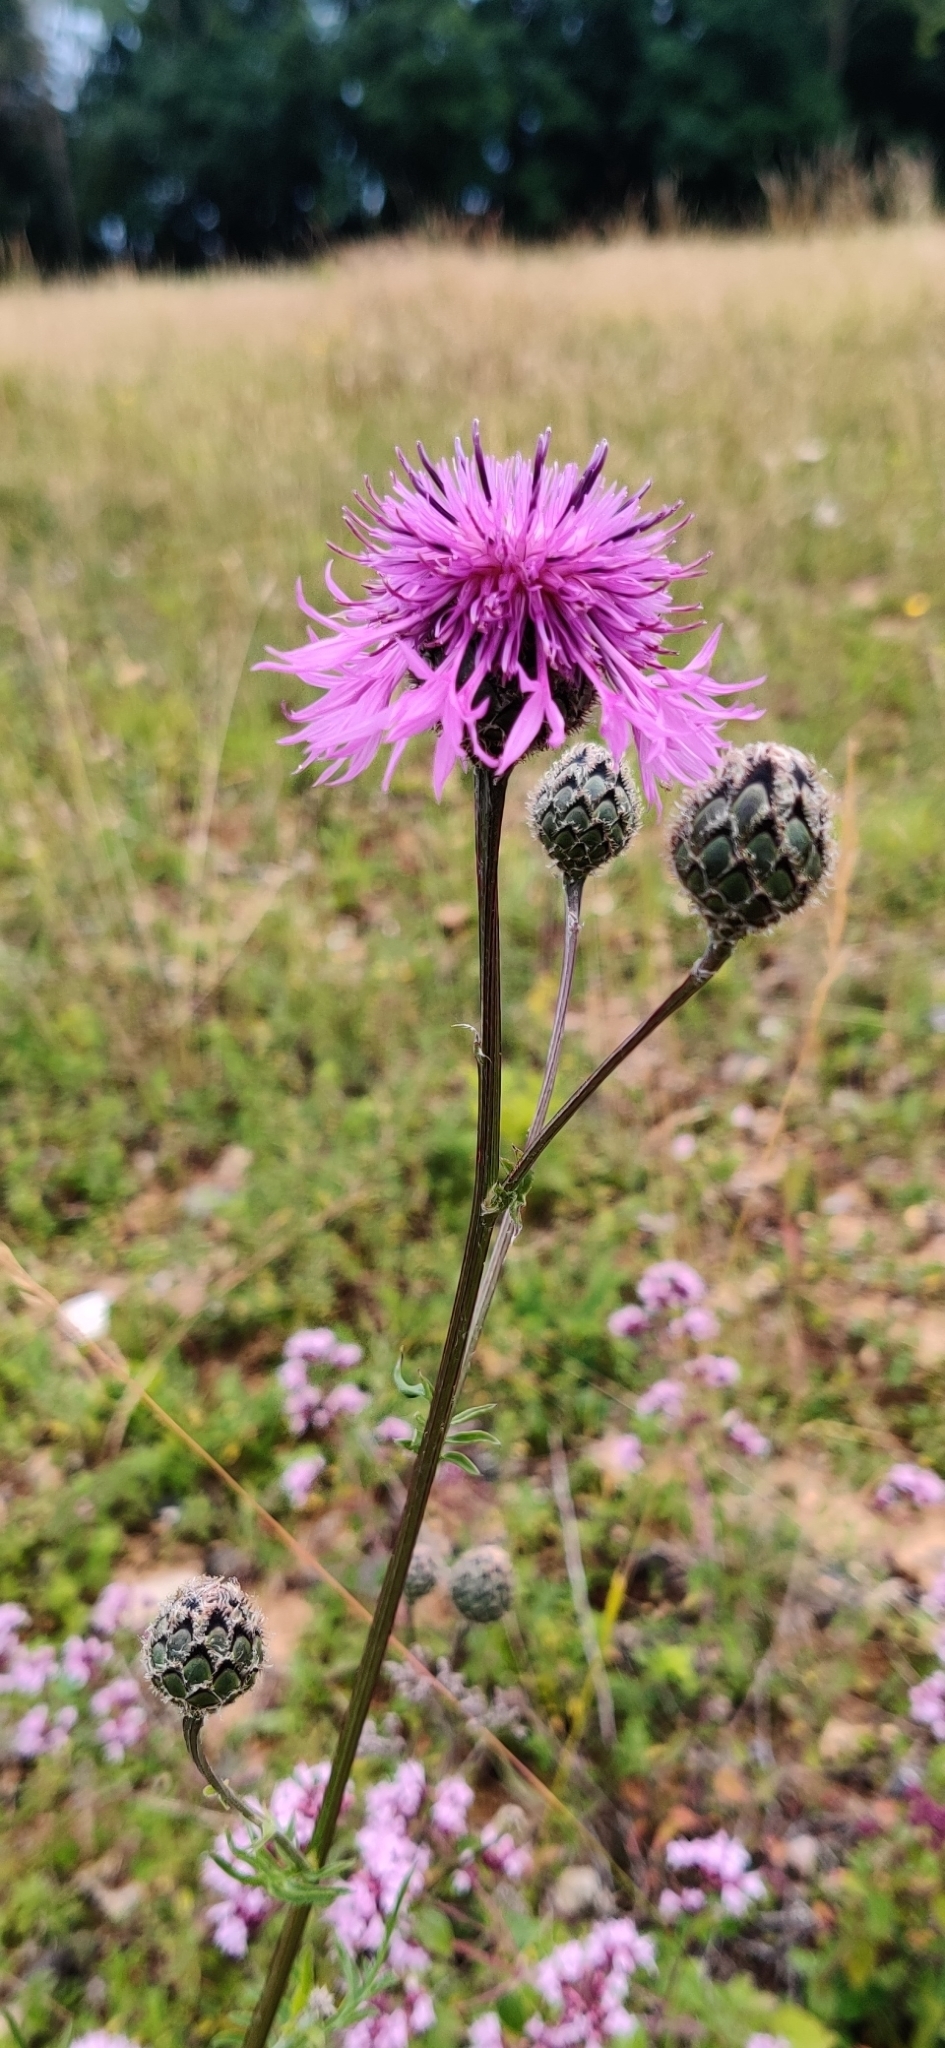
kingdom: Plantae
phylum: Tracheophyta
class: Magnoliopsida
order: Asterales
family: Asteraceae
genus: Centaurea
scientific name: Centaurea scabiosa
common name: Greater knapweed
